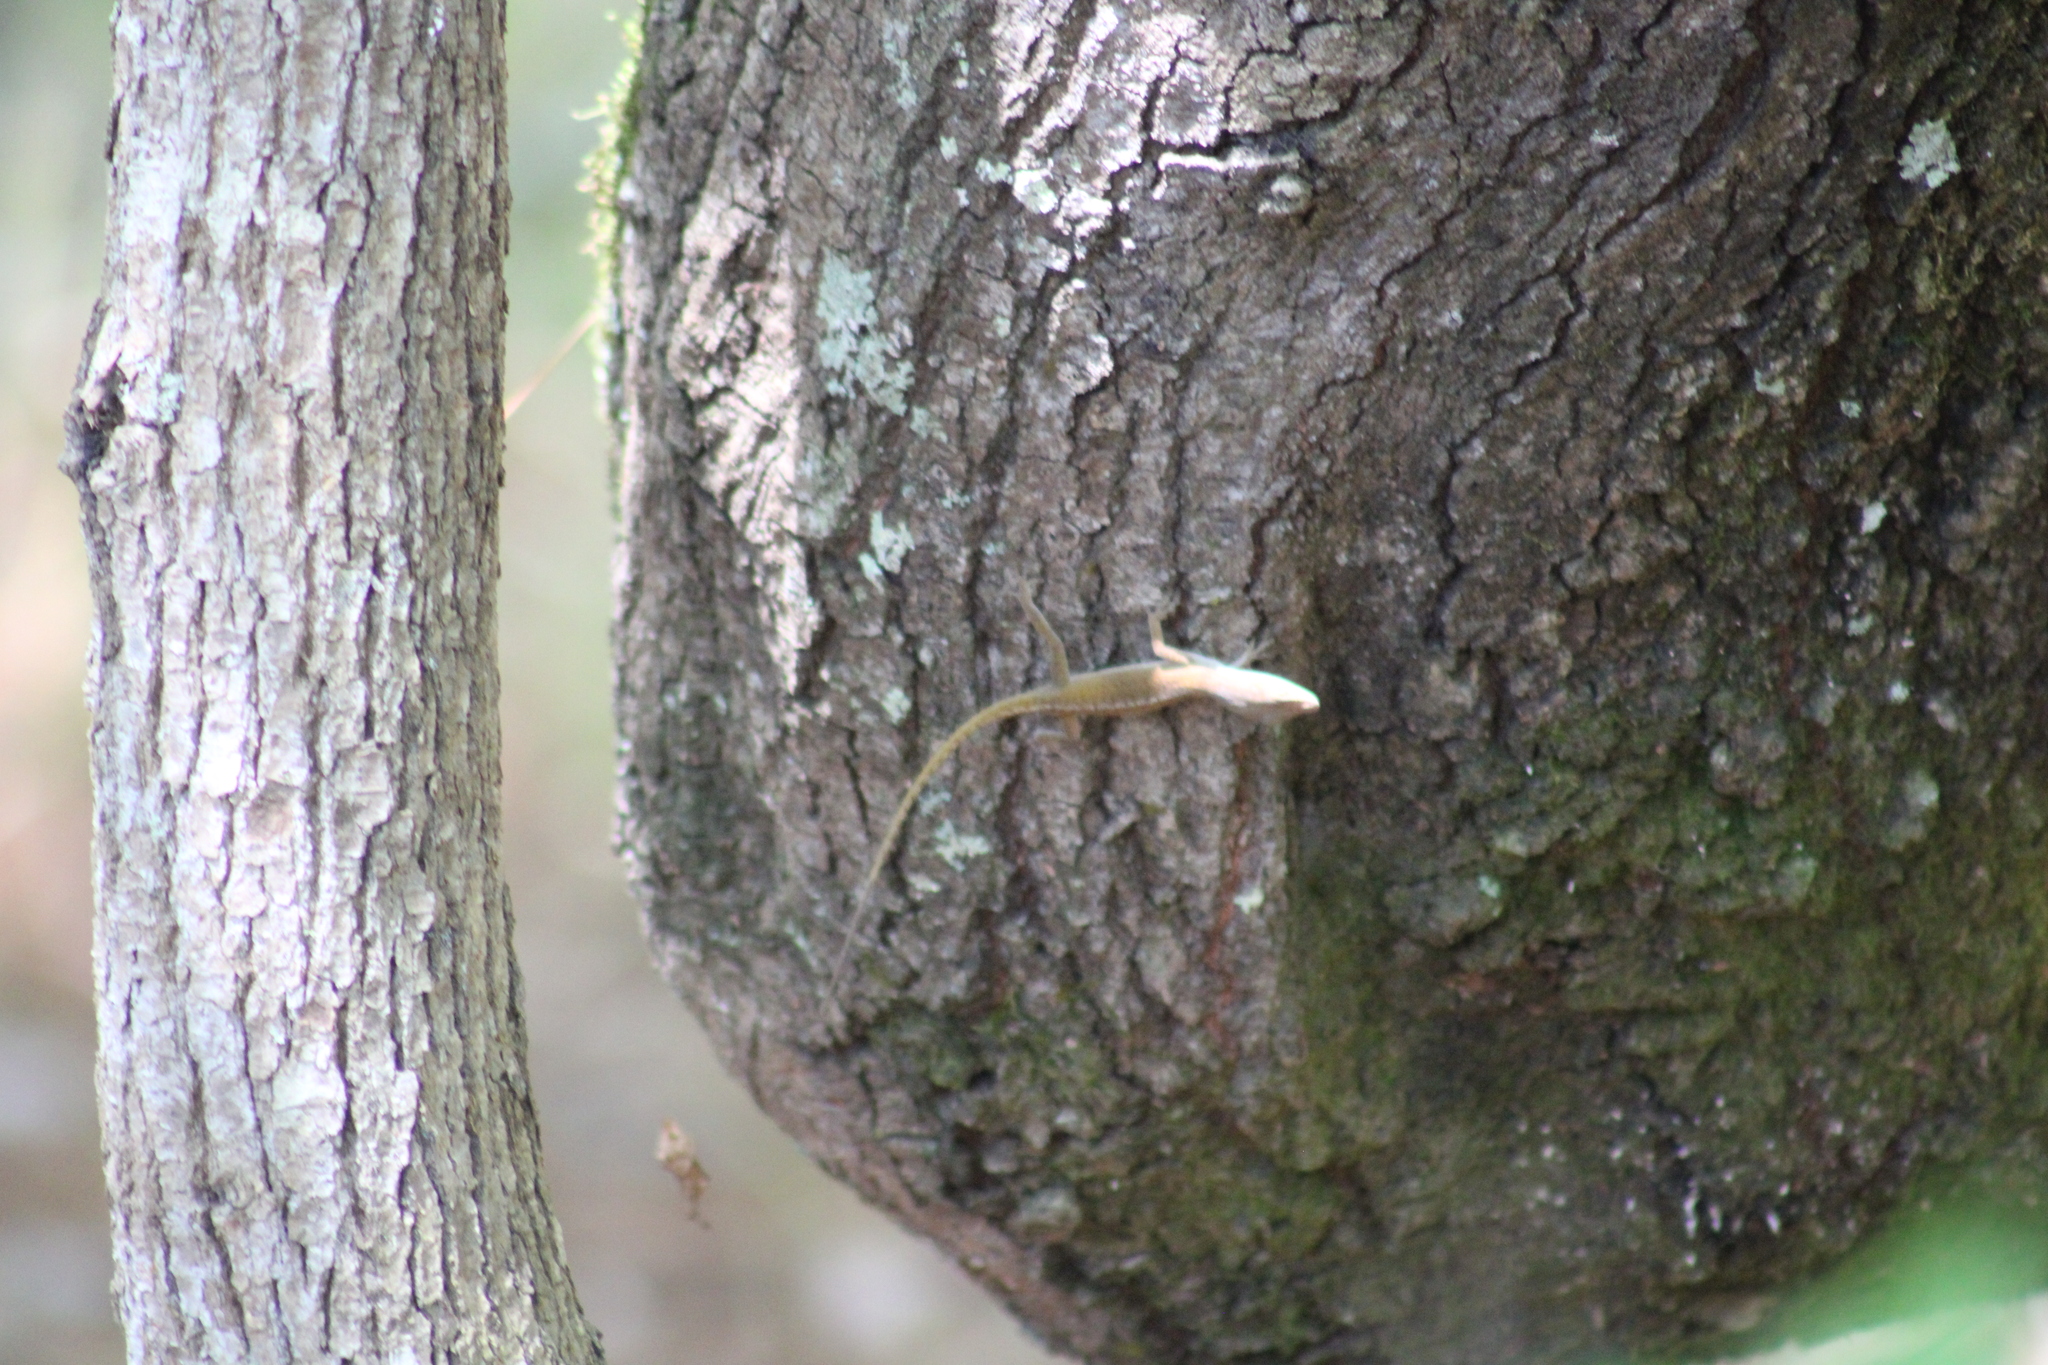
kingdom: Animalia
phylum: Chordata
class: Squamata
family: Dactyloidae
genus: Anolis
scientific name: Anolis carolinensis
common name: Green anole
